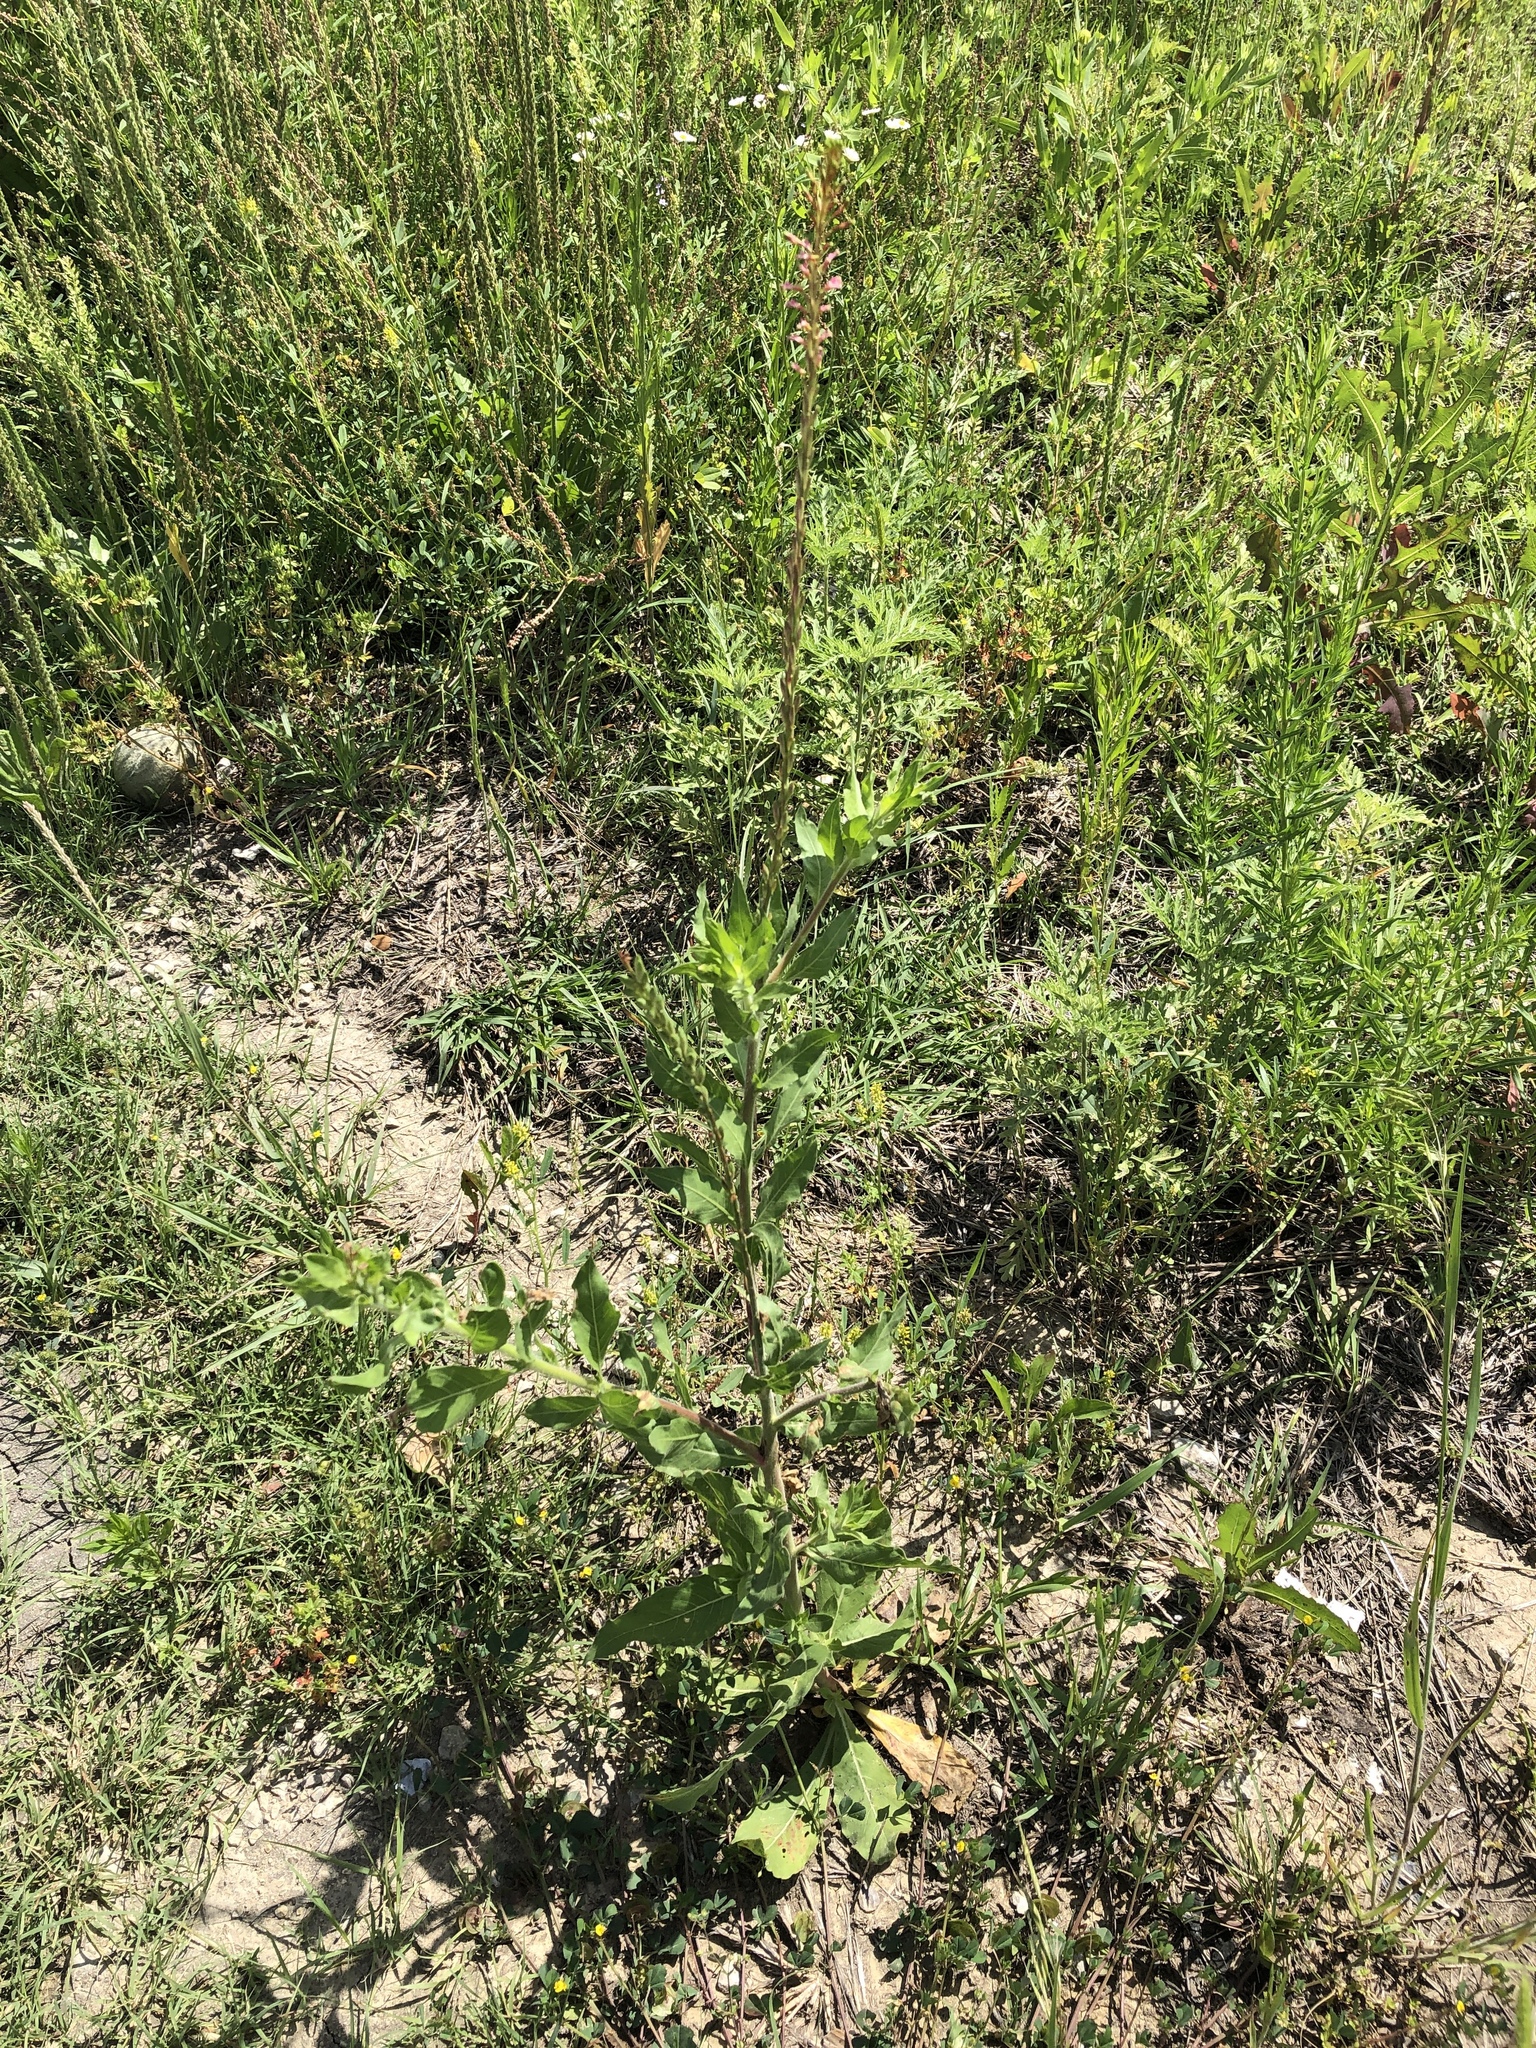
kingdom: Plantae
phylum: Tracheophyta
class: Magnoliopsida
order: Myrtales
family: Onagraceae
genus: Oenothera
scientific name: Oenothera curtiflora
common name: Velvetweed
